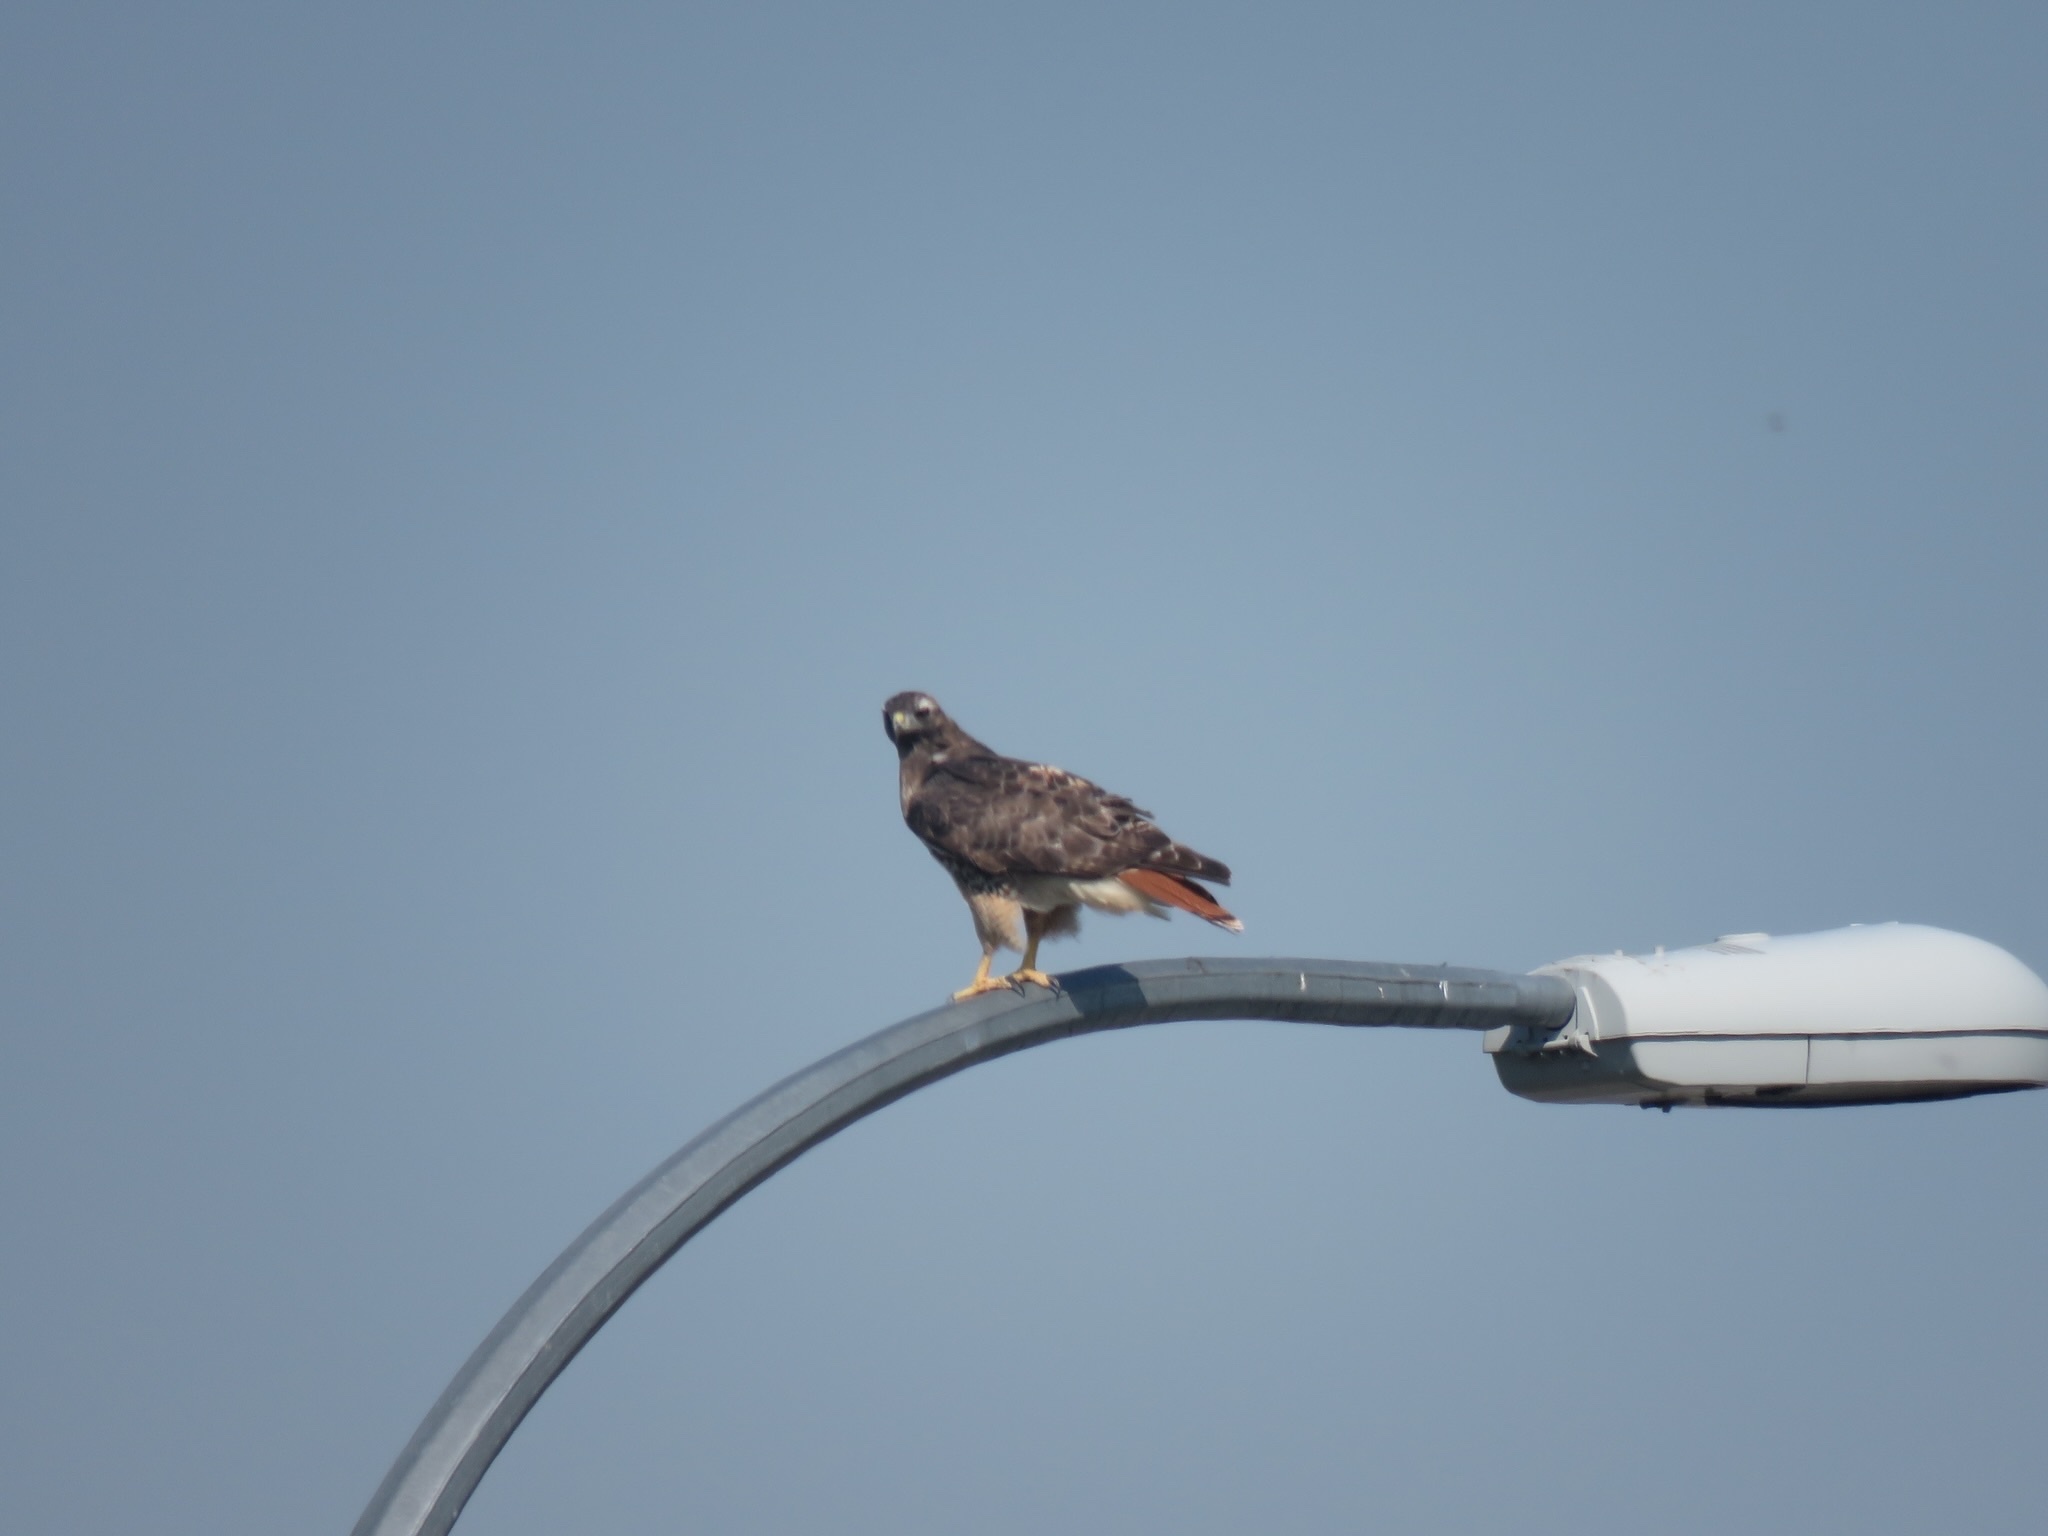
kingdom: Animalia
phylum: Chordata
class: Aves
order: Accipitriformes
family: Accipitridae
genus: Buteo
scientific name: Buteo jamaicensis
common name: Red-tailed hawk
